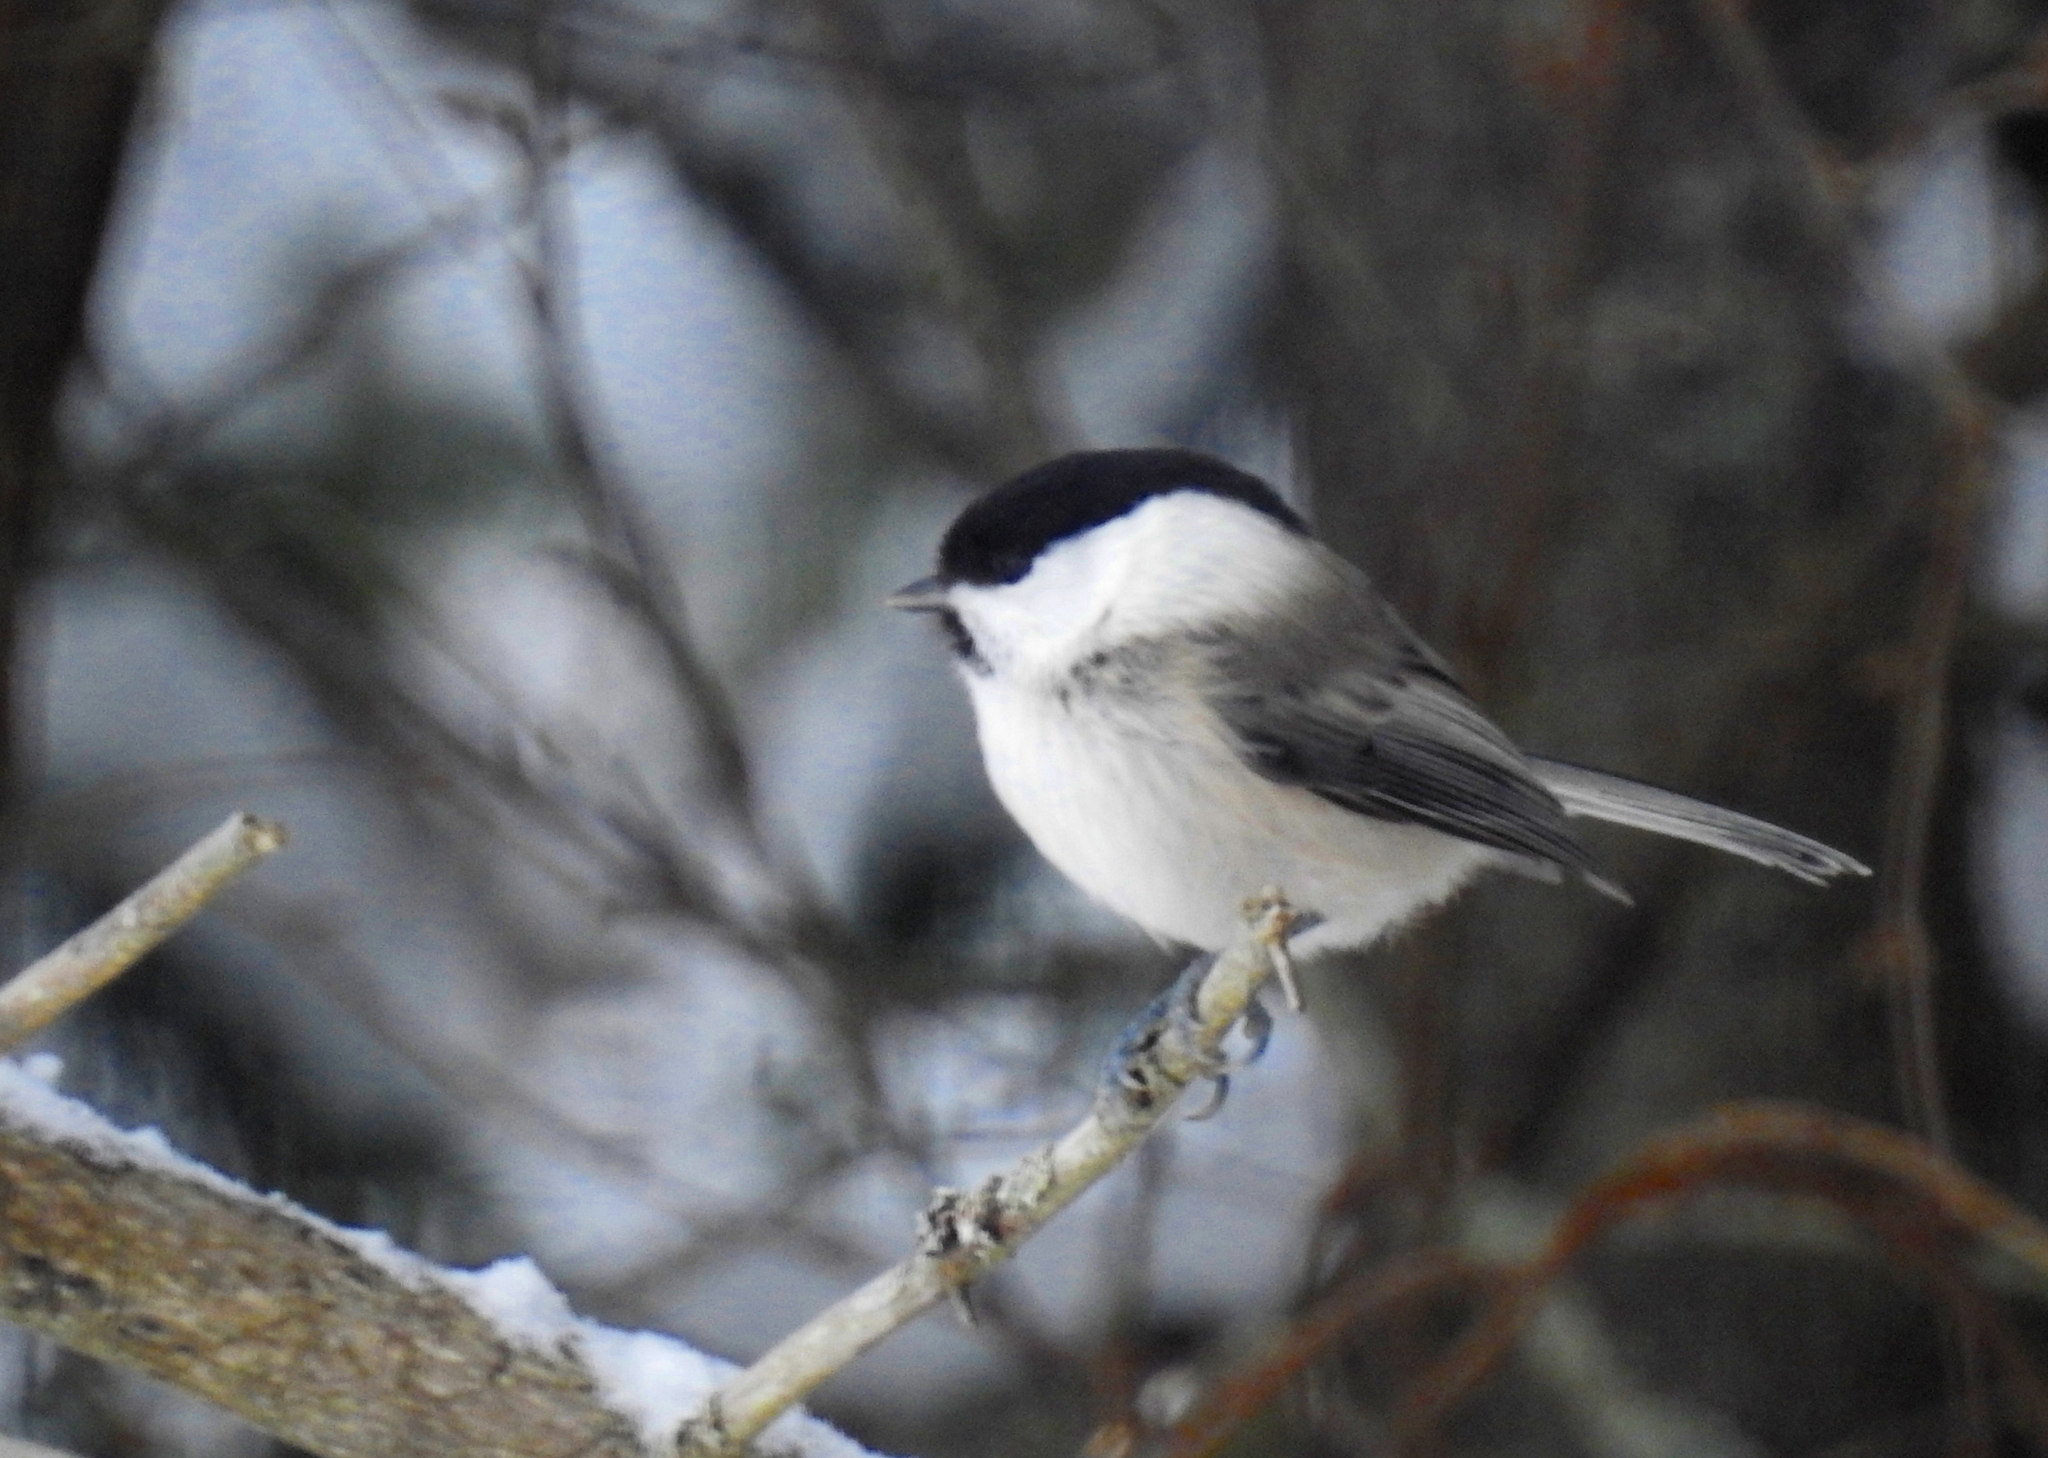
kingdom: Animalia
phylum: Chordata
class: Aves
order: Passeriformes
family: Paridae
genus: Poecile
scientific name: Poecile montanus
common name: Willow tit
